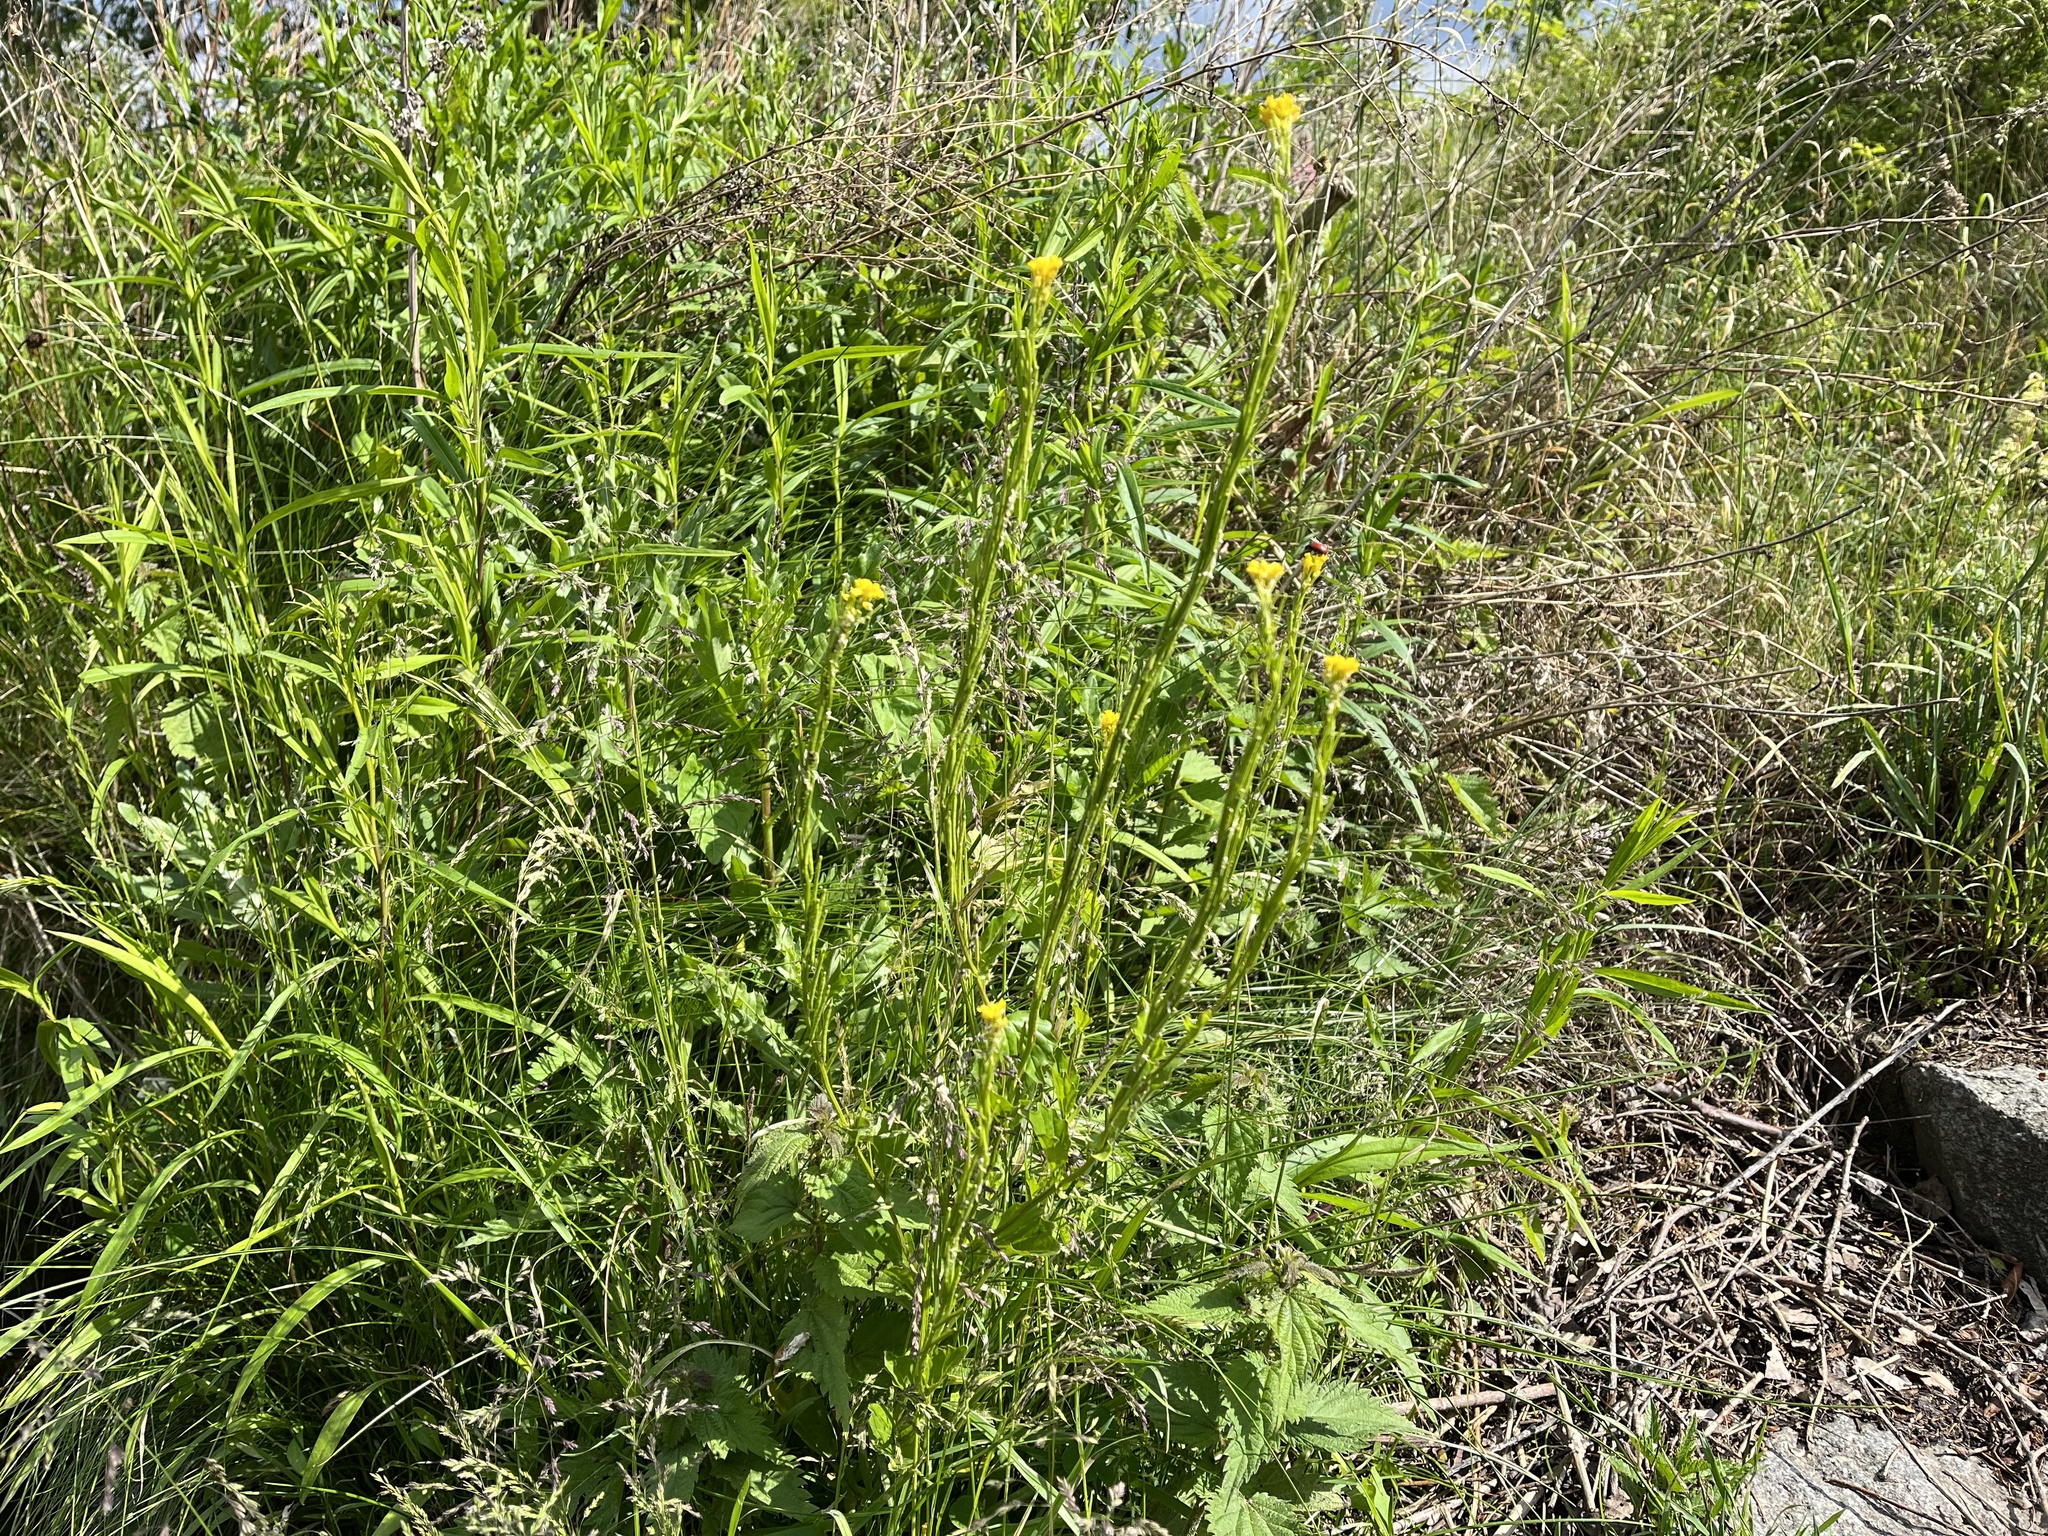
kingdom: Plantae
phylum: Tracheophyta
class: Magnoliopsida
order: Brassicales
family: Brassicaceae
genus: Barbarea
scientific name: Barbarea stricta
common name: Small-flowered winter-cress
